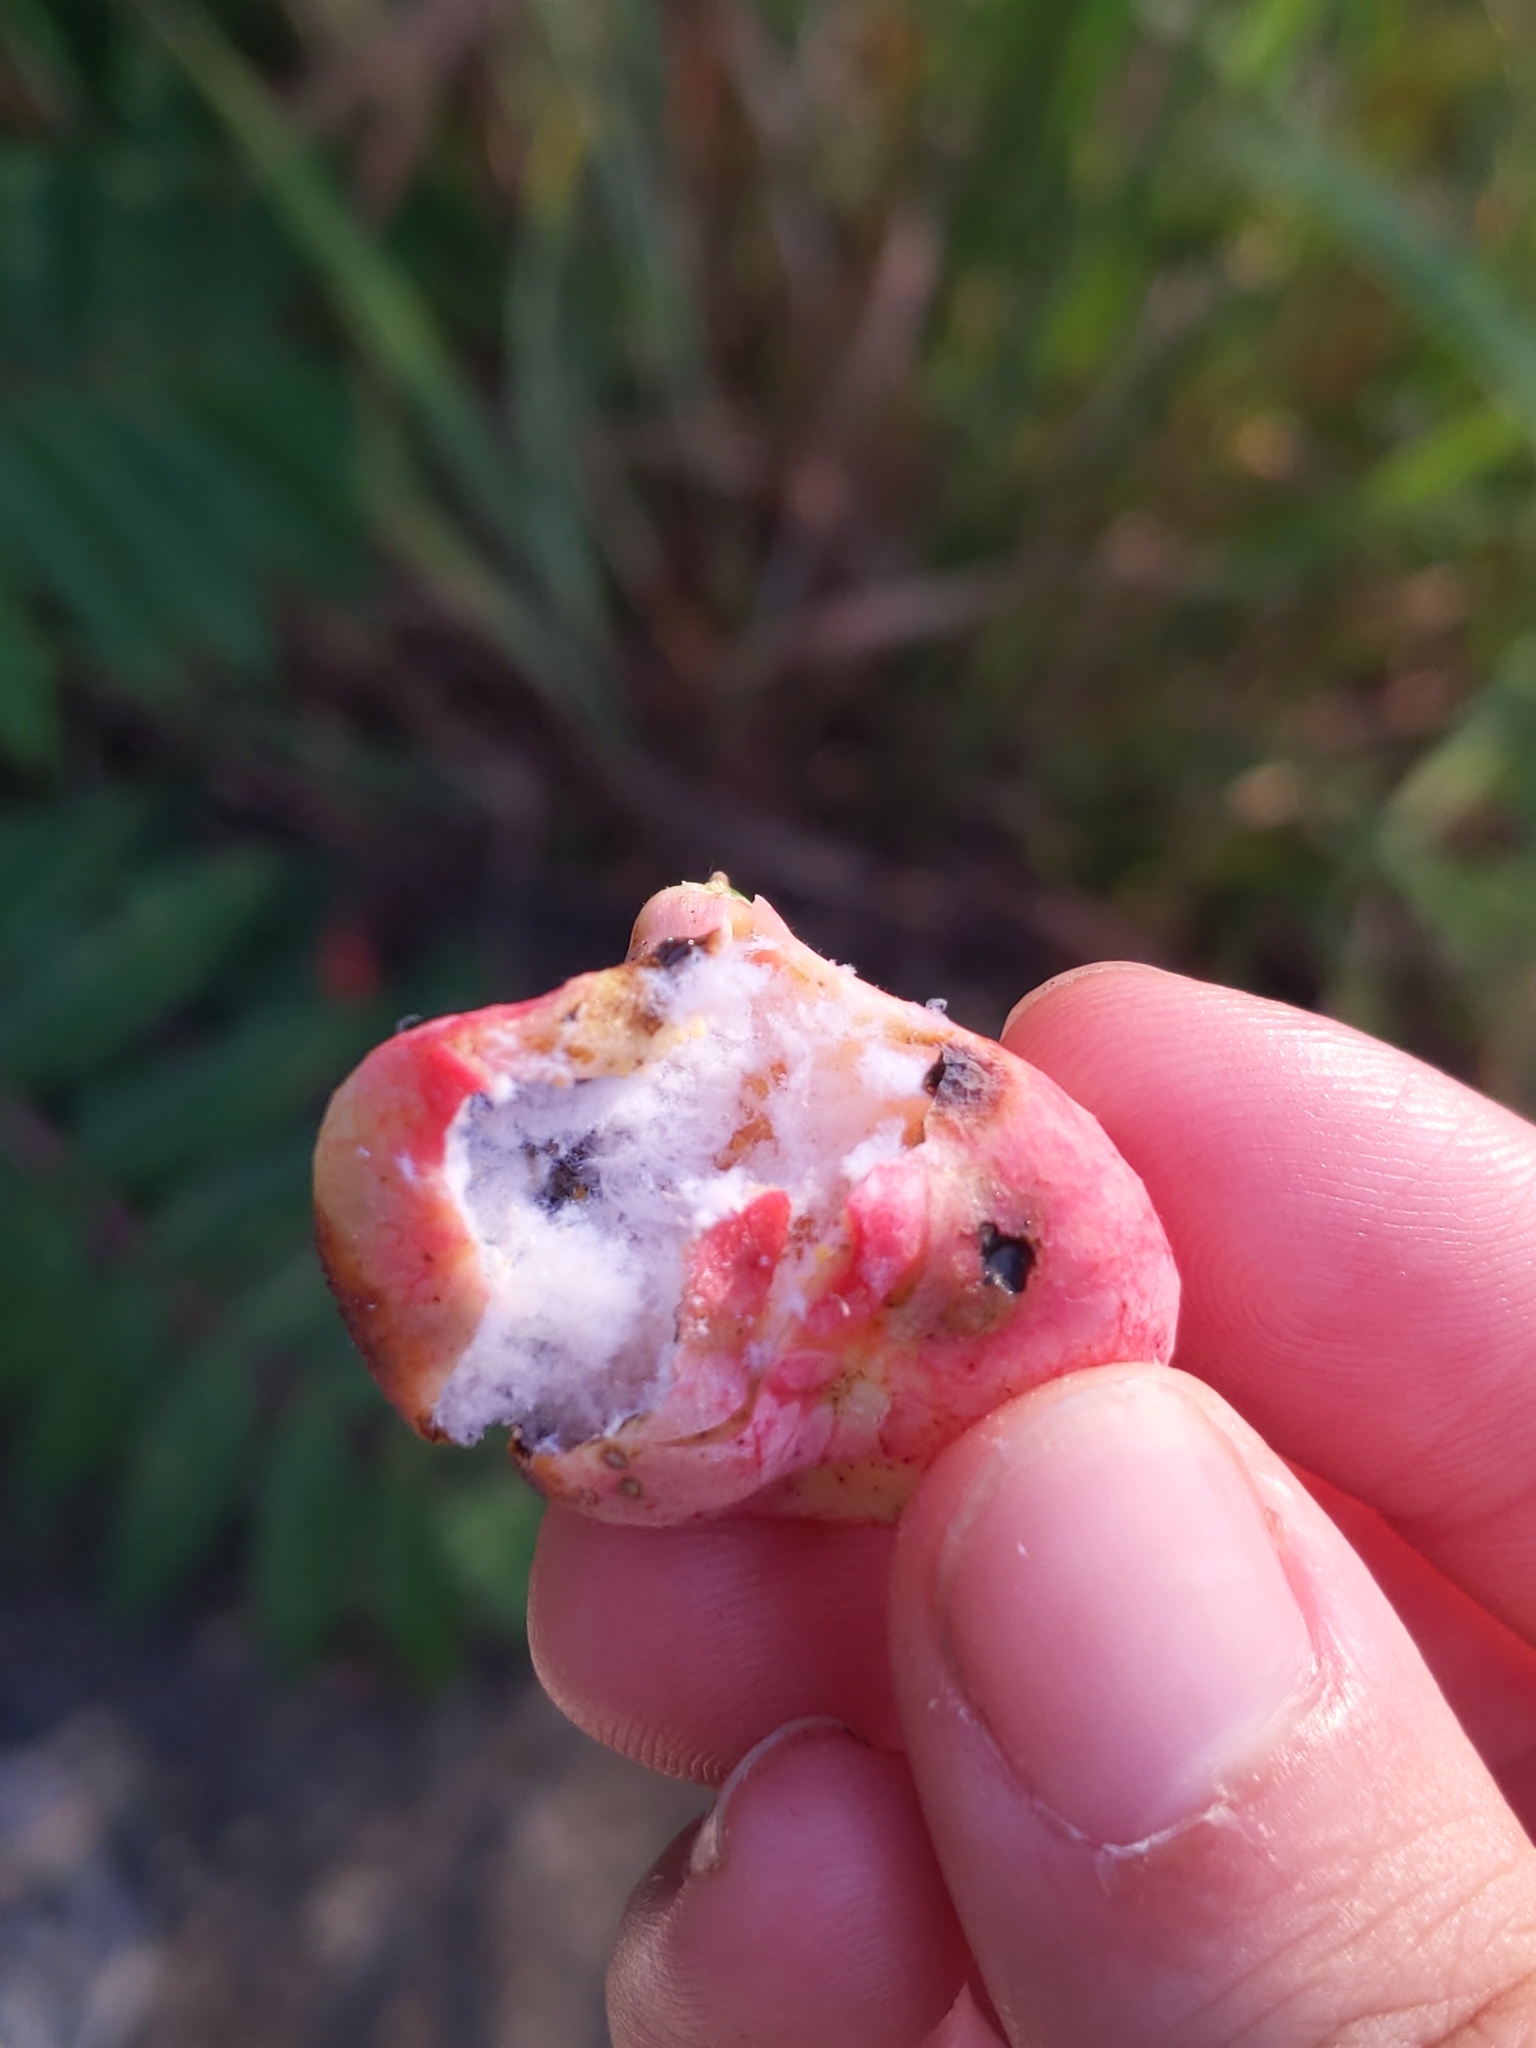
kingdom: Animalia
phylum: Arthropoda
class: Insecta
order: Hemiptera
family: Aphididae
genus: Melaphis
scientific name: Melaphis rhois
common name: Sumac gall aphid
